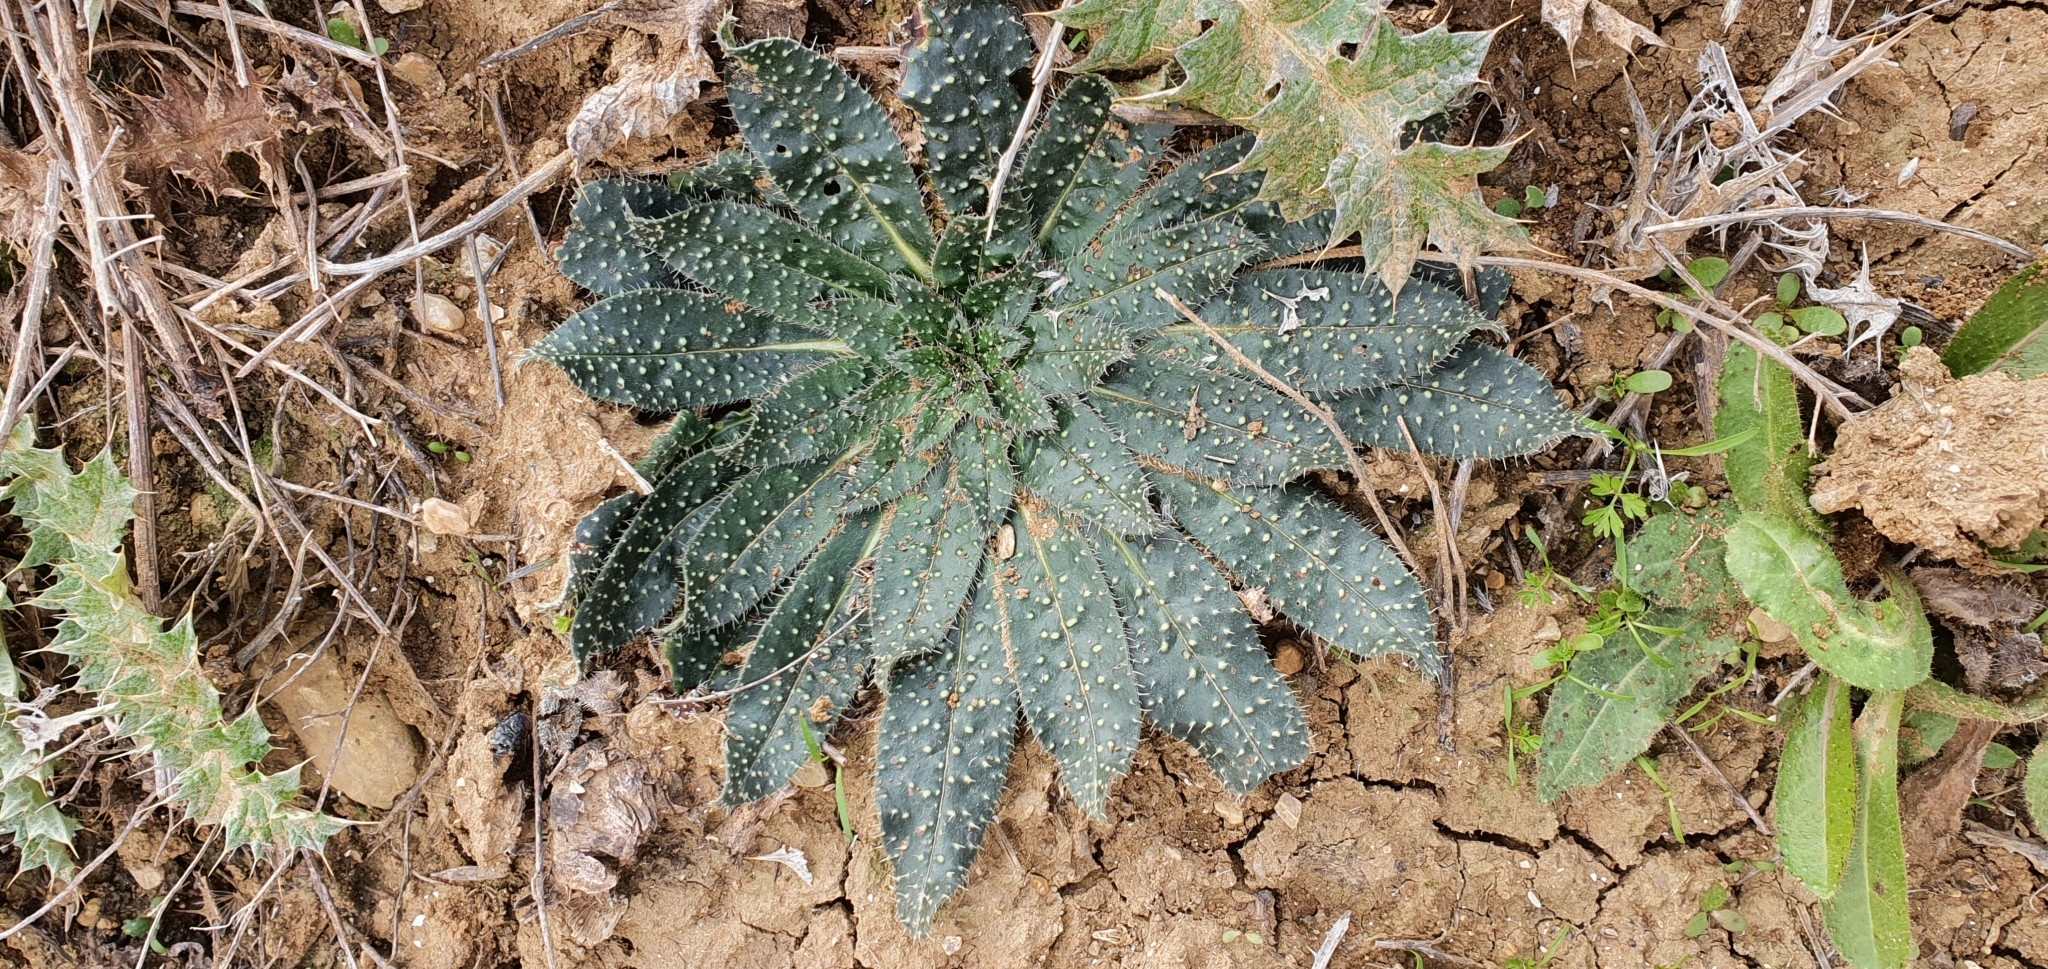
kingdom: Plantae
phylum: Tracheophyta
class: Magnoliopsida
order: Boraginales
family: Boraginaceae
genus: Echium
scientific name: Echium asperrimum
